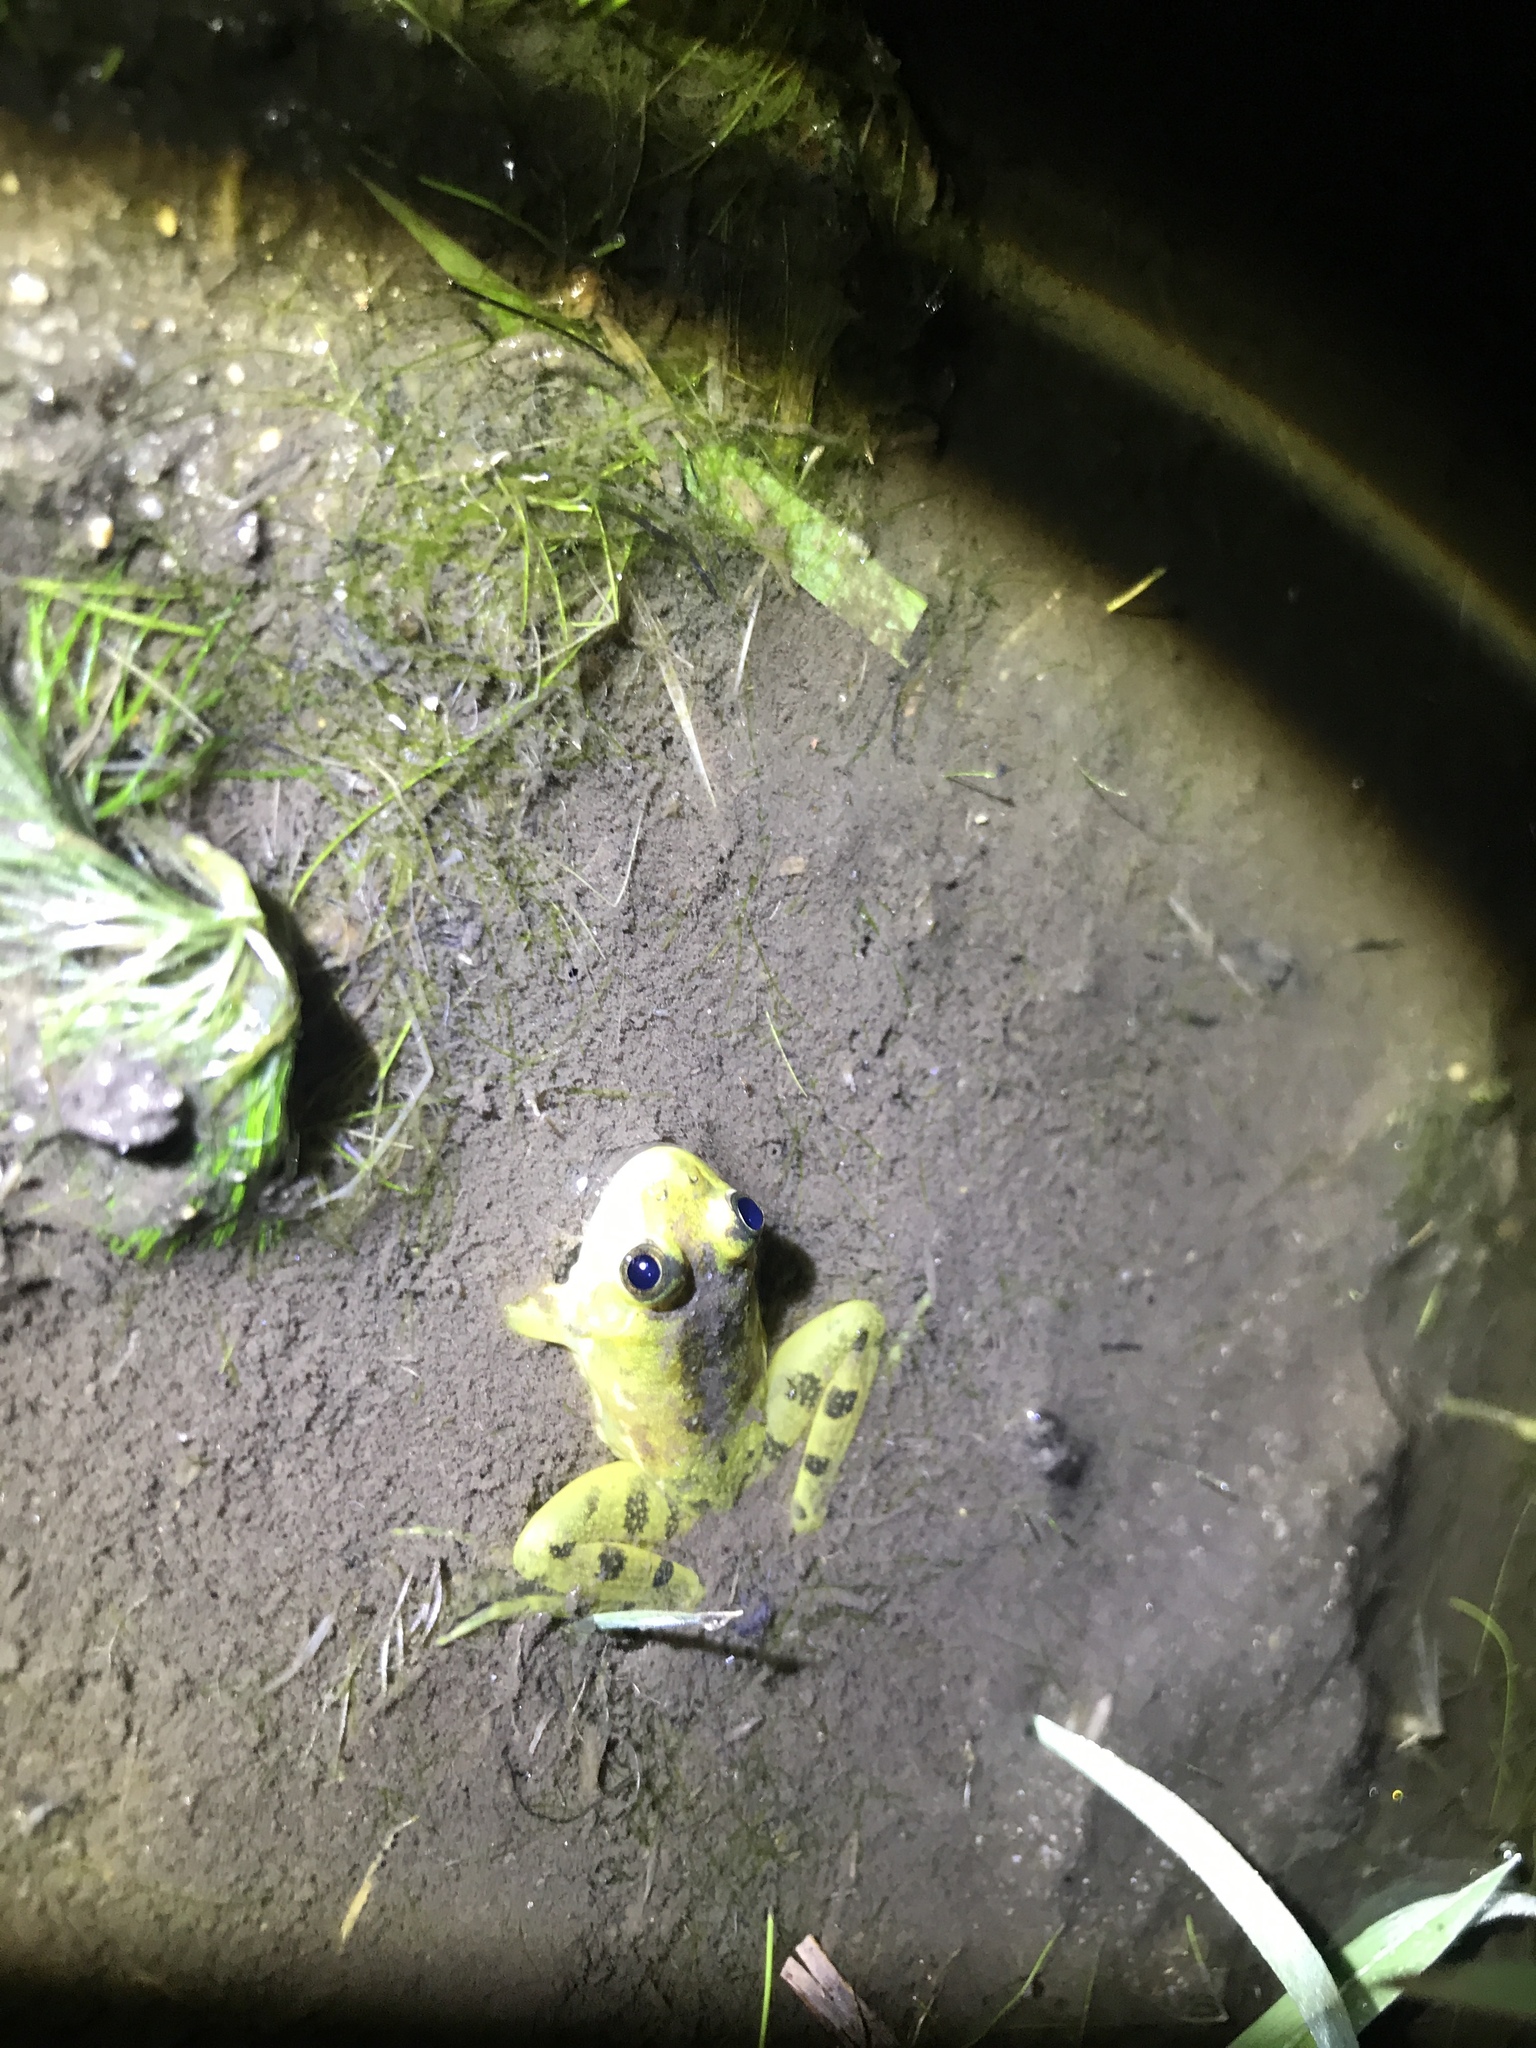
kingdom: Animalia
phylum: Chordata
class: Amphibia
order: Anura
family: Hylidae
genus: Pseudis
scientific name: Pseudis minuta
